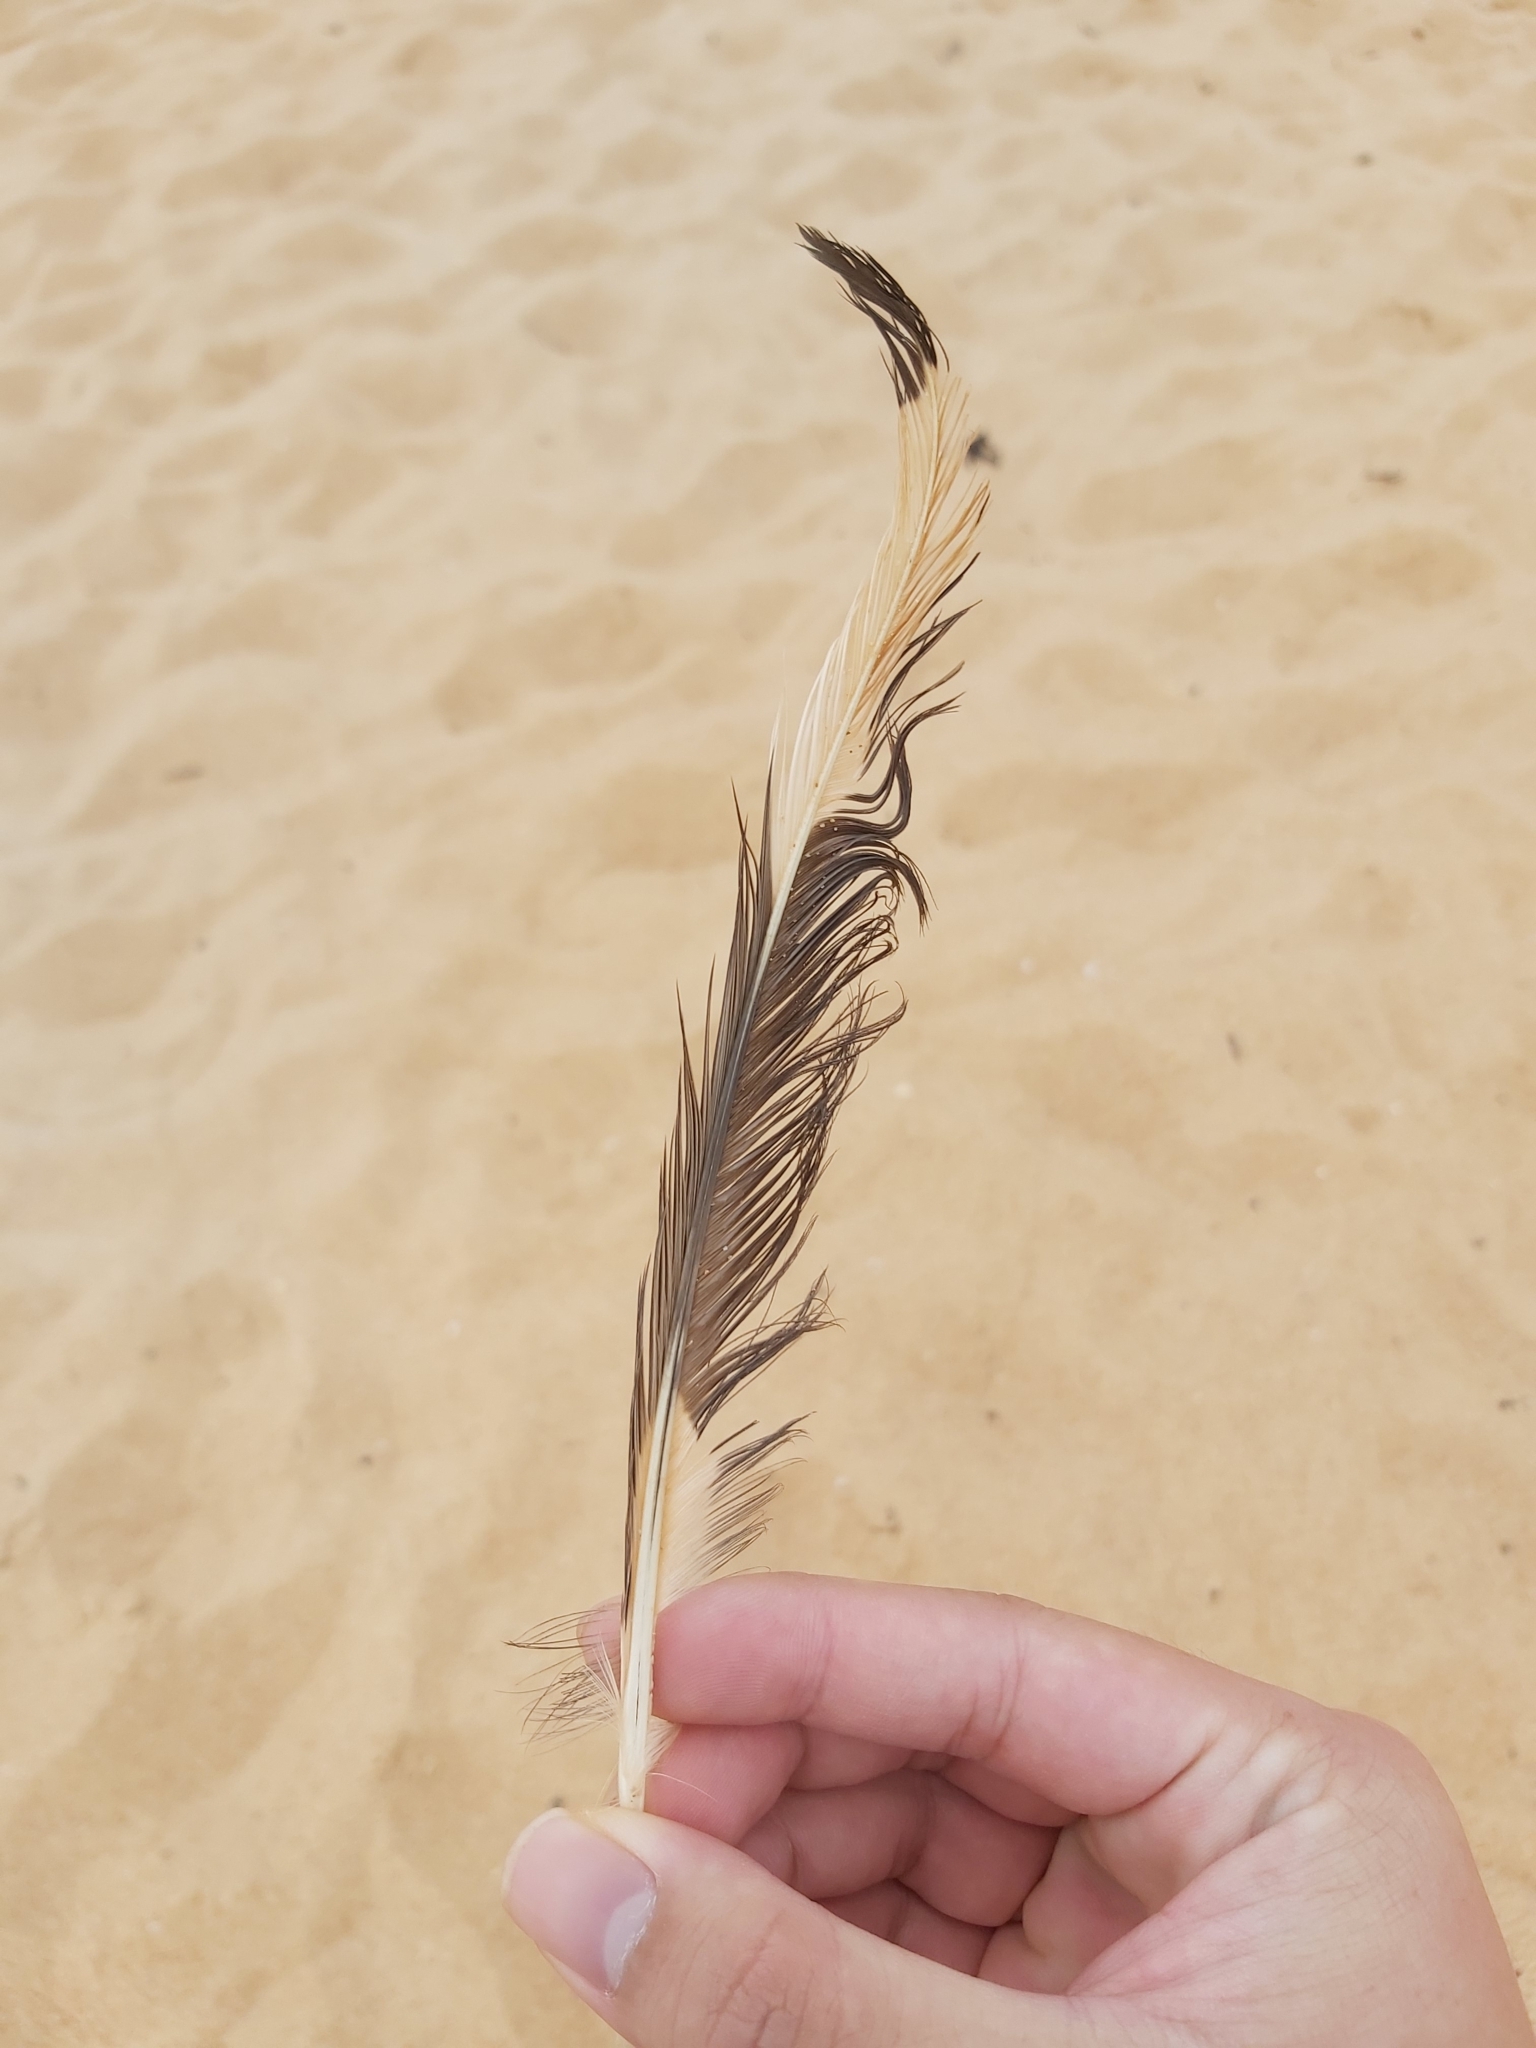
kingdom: Animalia
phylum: Chordata
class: Aves
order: Charadriiformes
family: Laridae
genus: Chroicocephalus
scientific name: Chroicocephalus novaehollandiae
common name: Silver gull
